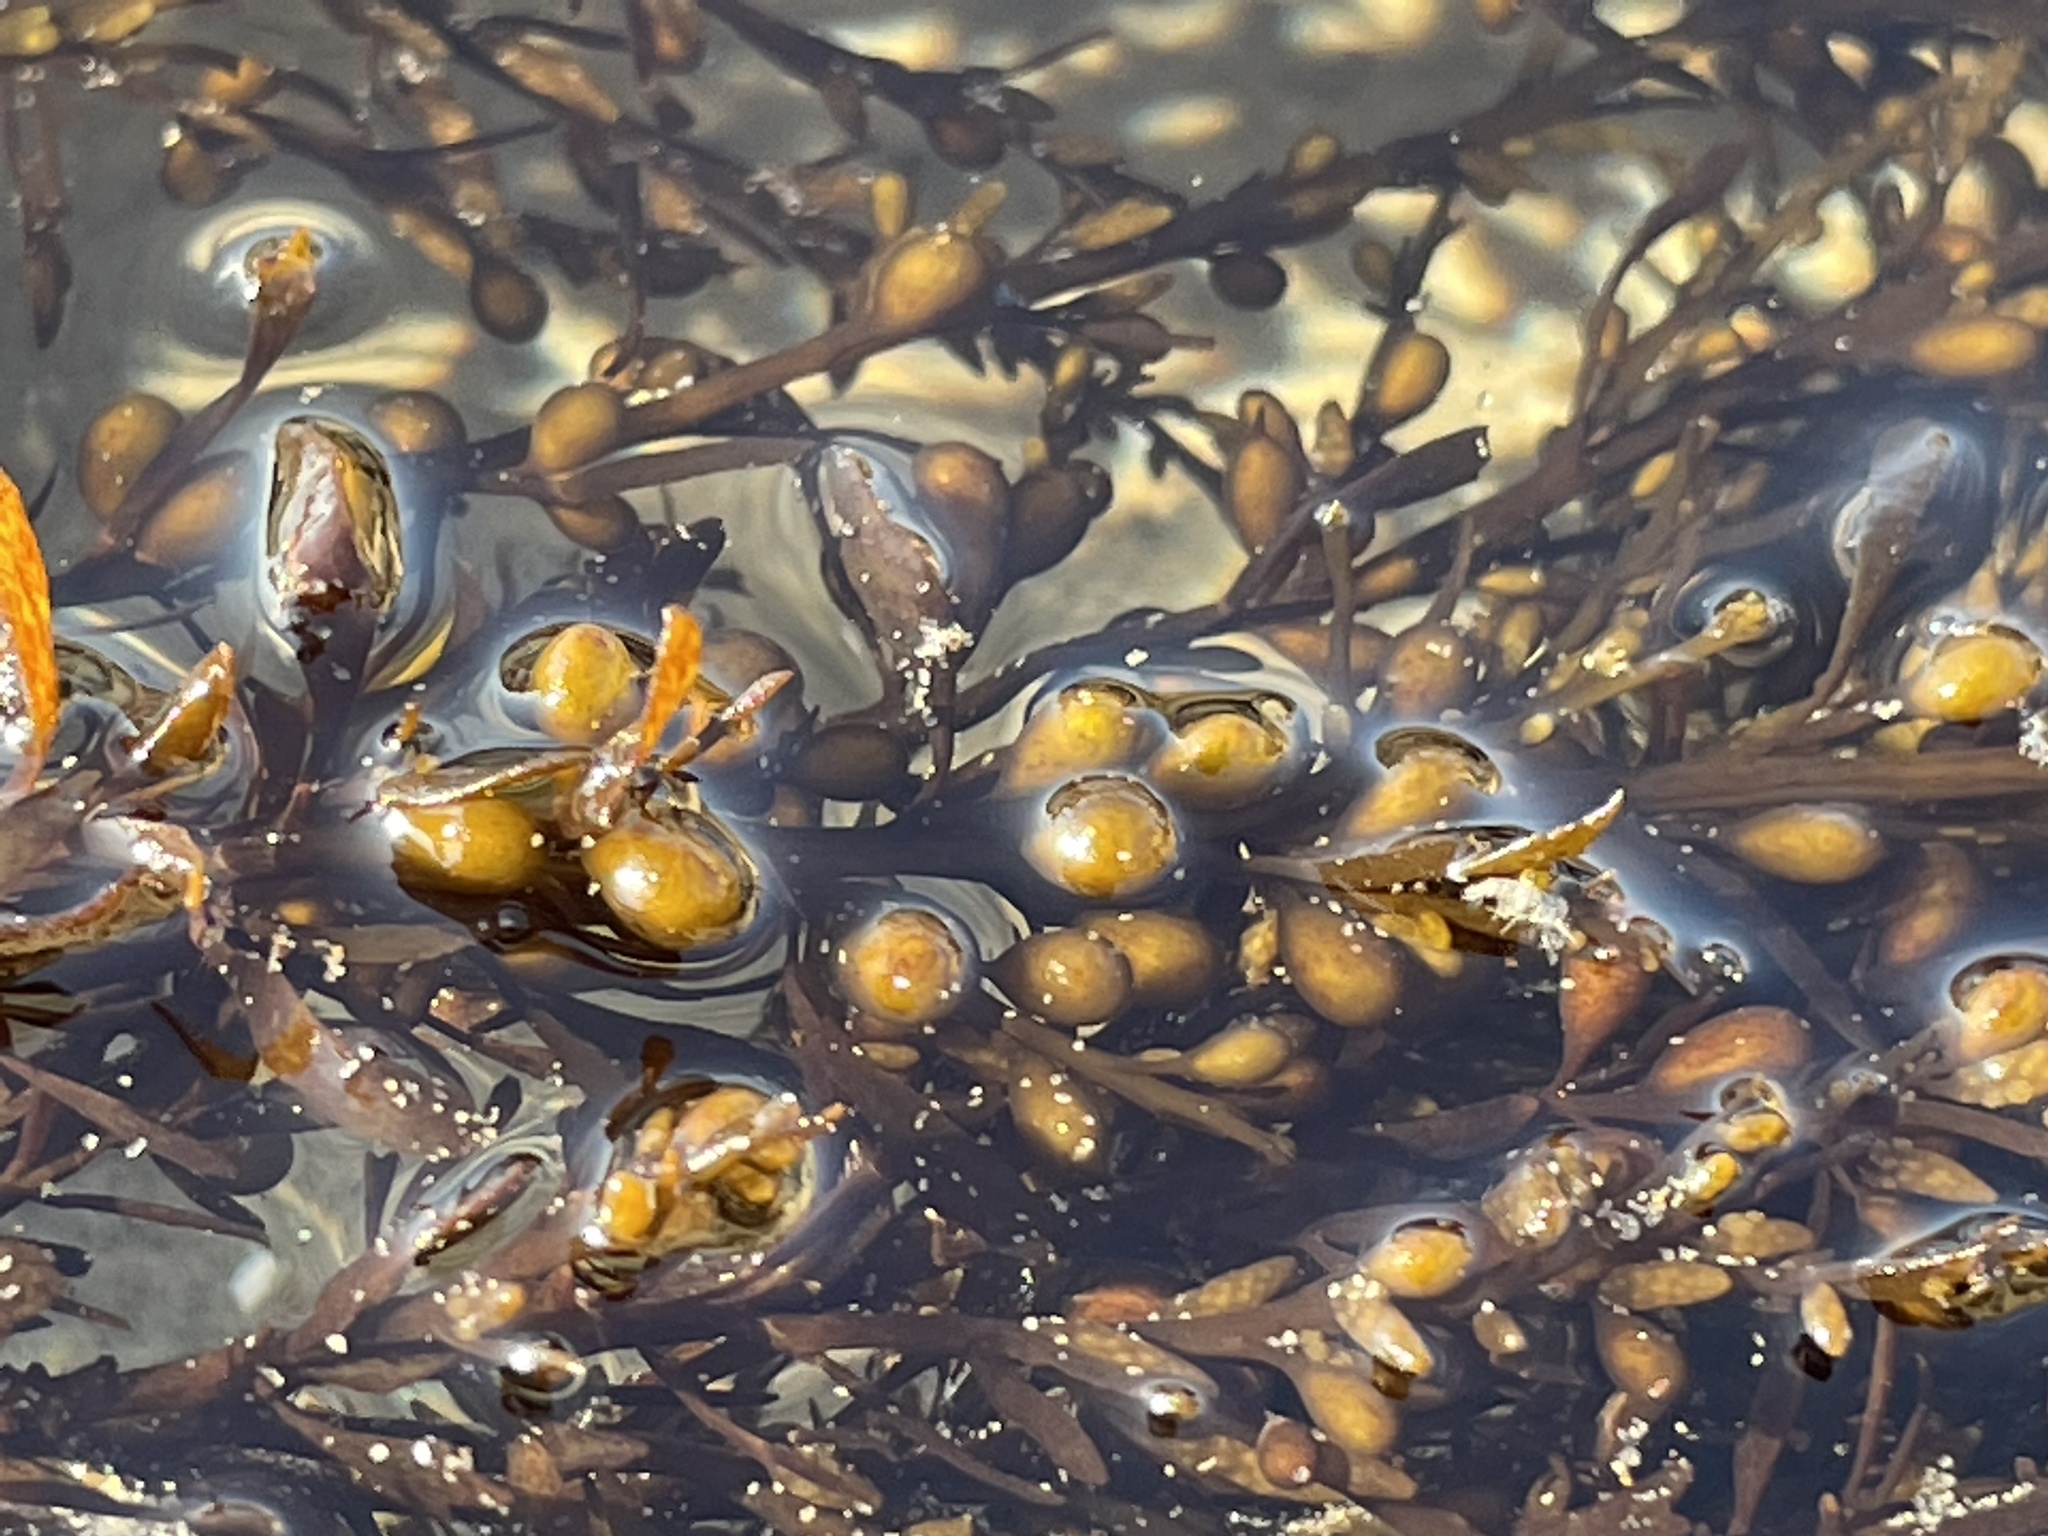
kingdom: Chromista
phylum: Ochrophyta
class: Phaeophyceae
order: Fucales
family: Sargassaceae
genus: Sargassum
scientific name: Sargassum muticum
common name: Japweed
